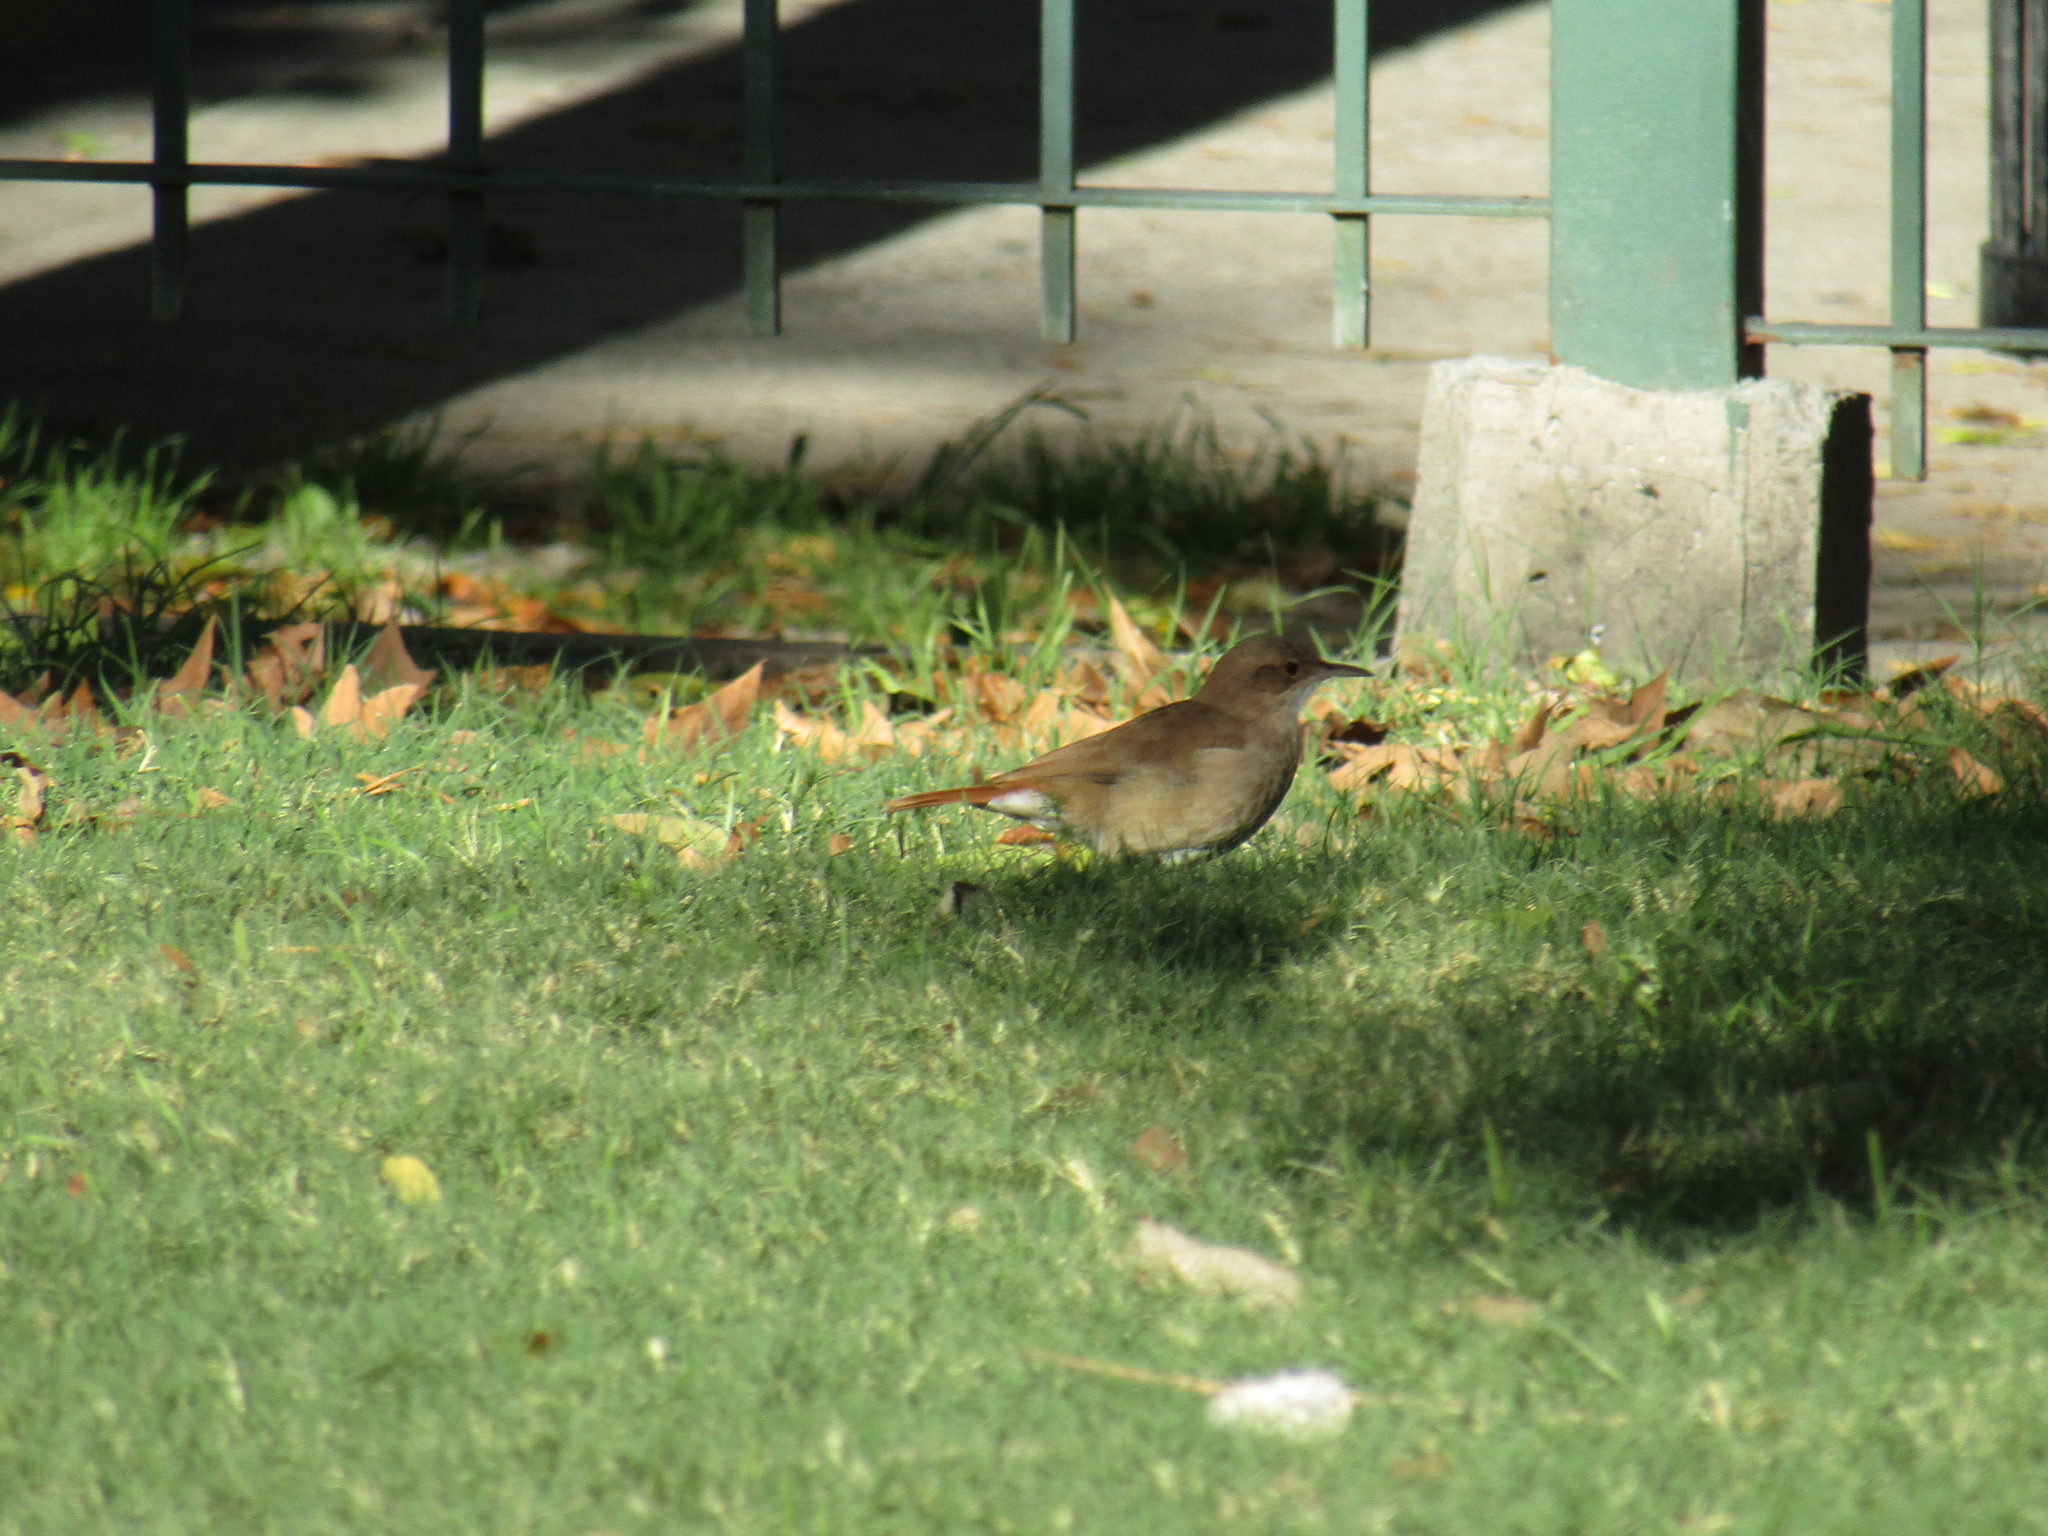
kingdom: Animalia
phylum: Chordata
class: Aves
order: Passeriformes
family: Furnariidae
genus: Furnarius
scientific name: Furnarius rufus
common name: Rufous hornero
